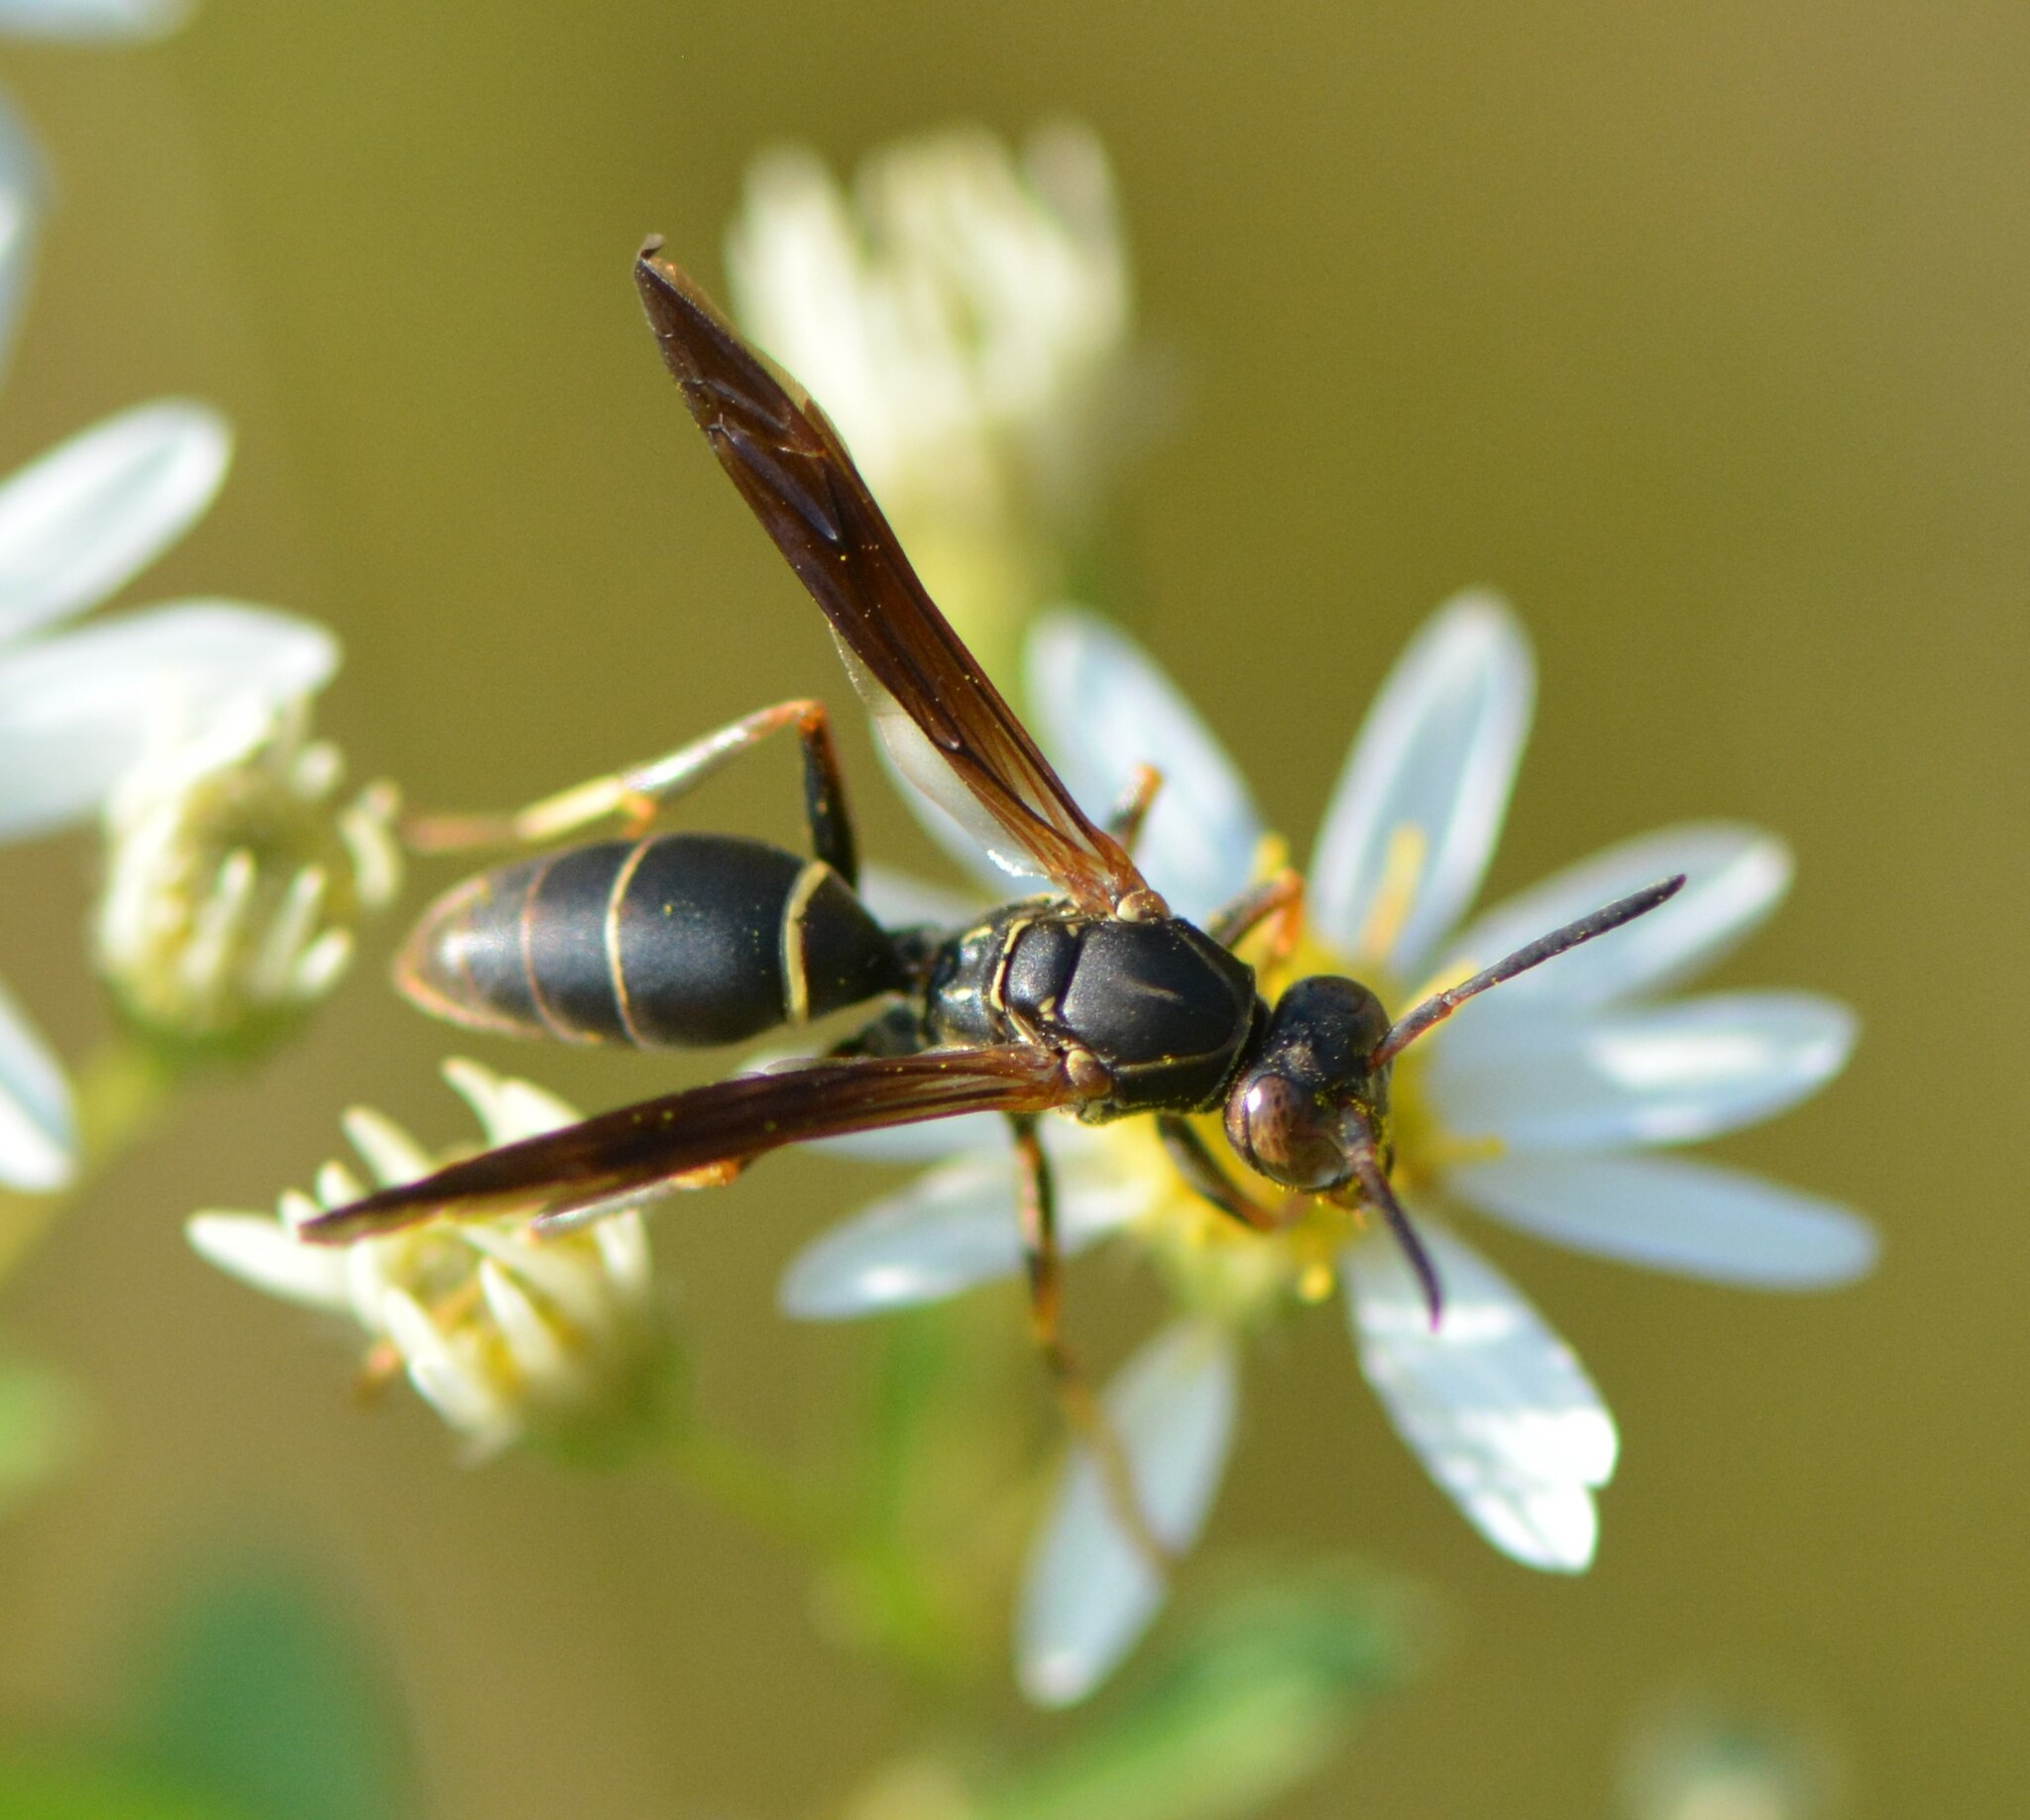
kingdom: Animalia
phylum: Arthropoda
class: Insecta
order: Hymenoptera
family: Eumenidae
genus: Polistes
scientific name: Polistes fuscatus
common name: Dark paper wasp
